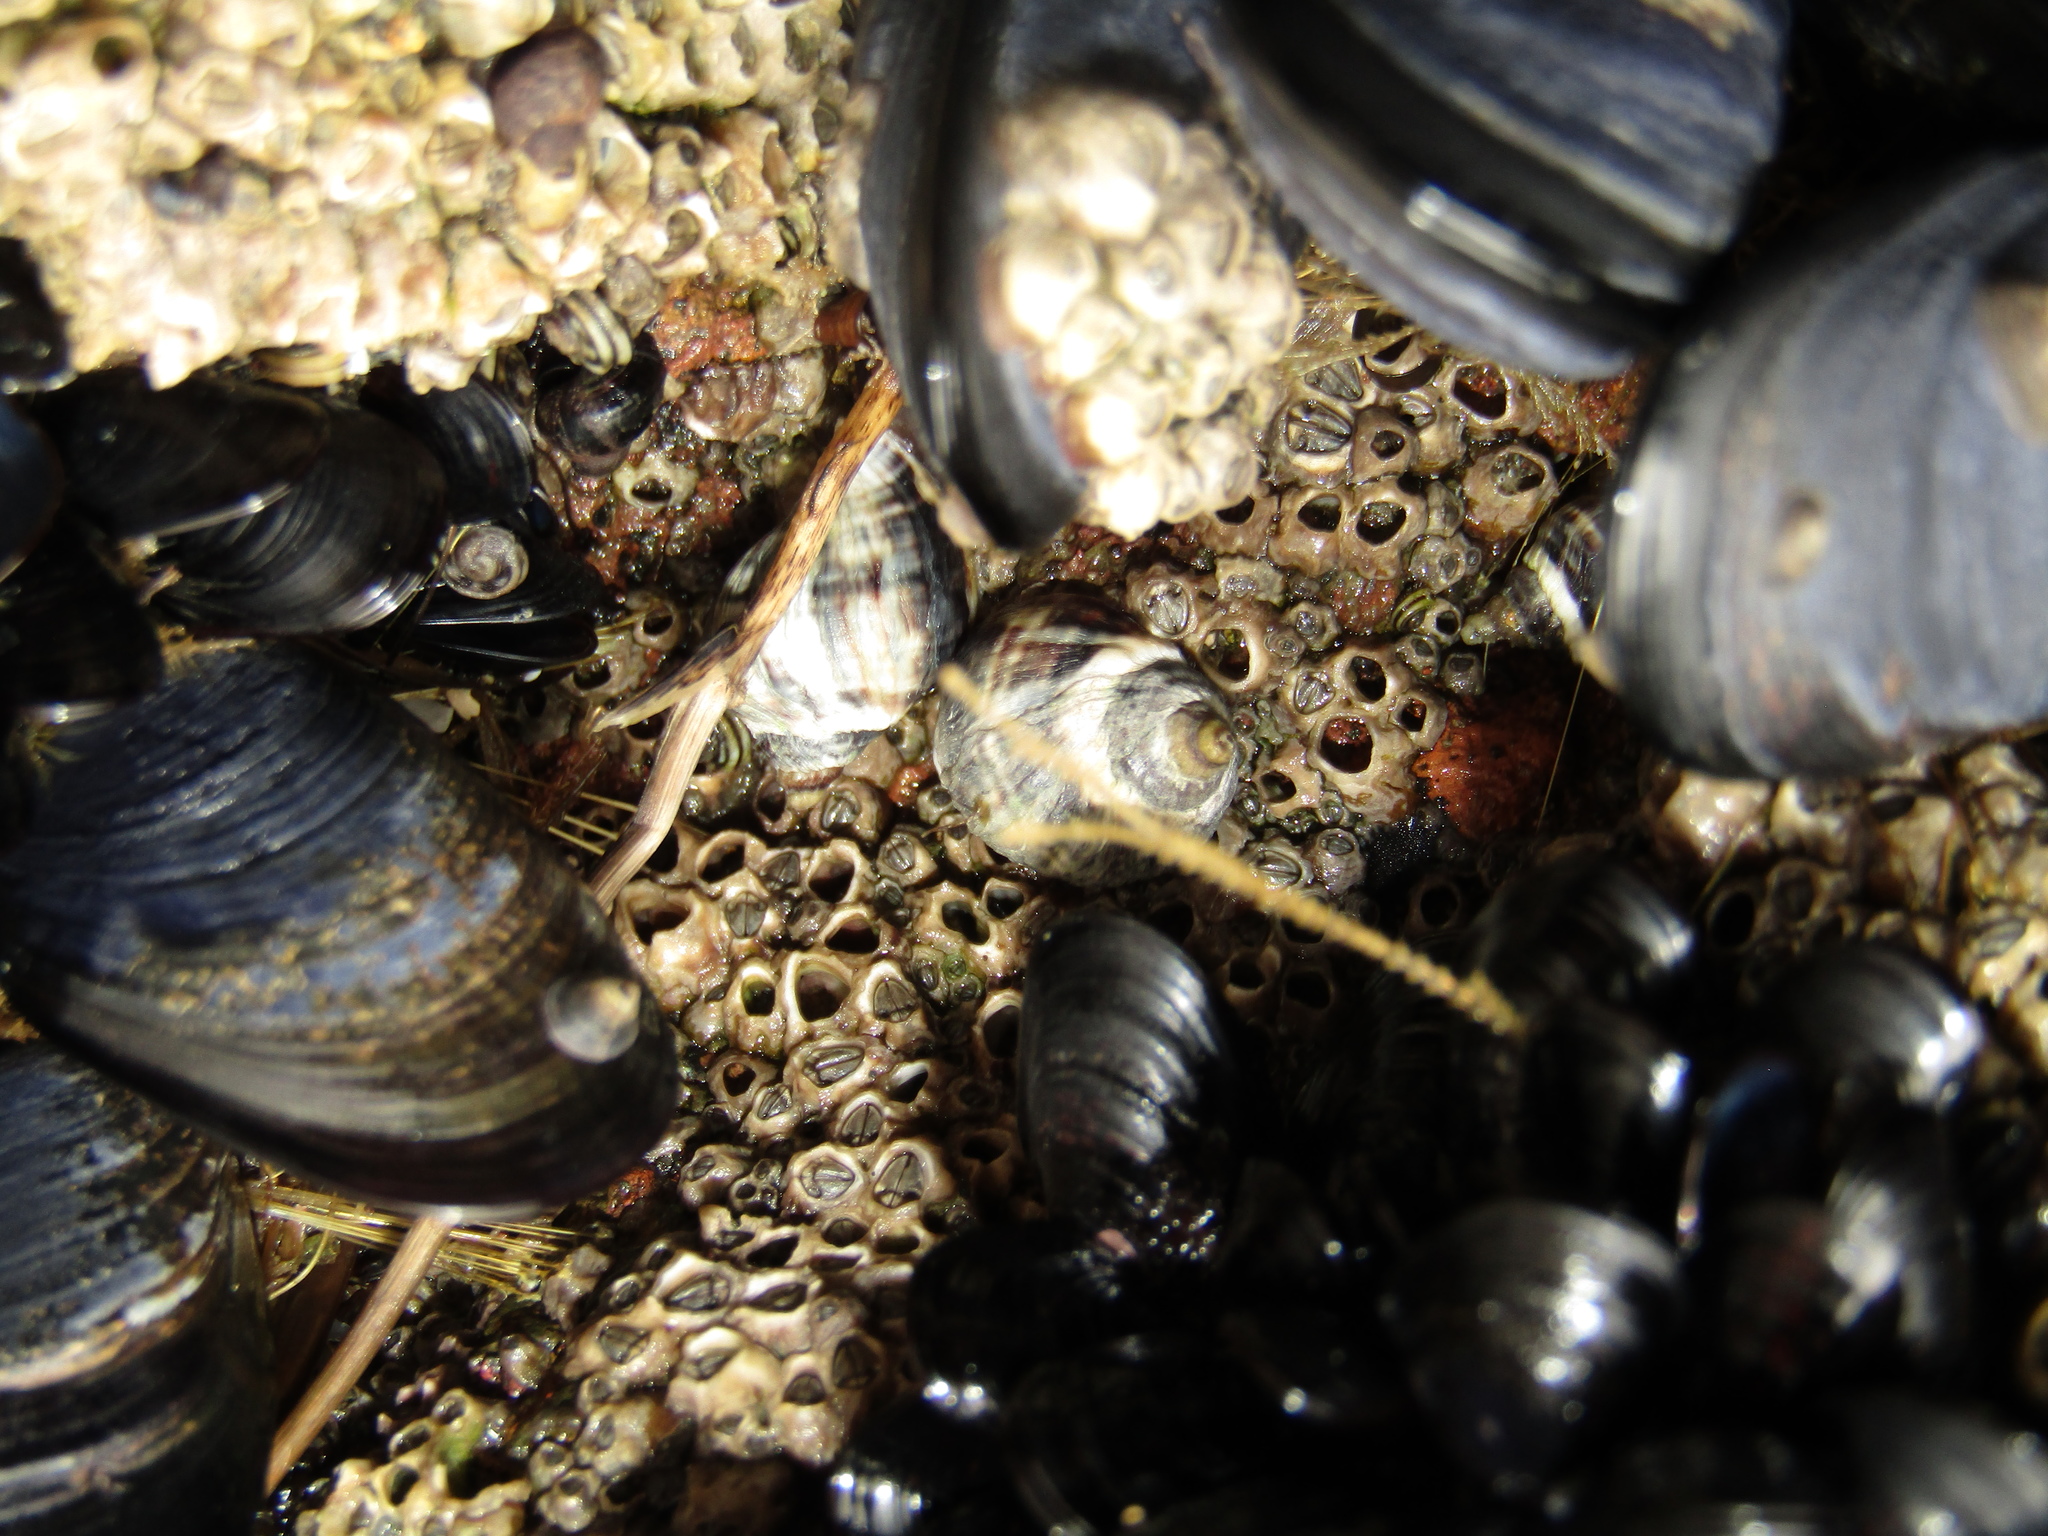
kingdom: Animalia
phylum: Mollusca
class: Gastropoda
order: Neogastropoda
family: Muricidae
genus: Haustrum
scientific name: Haustrum albomarginatum
